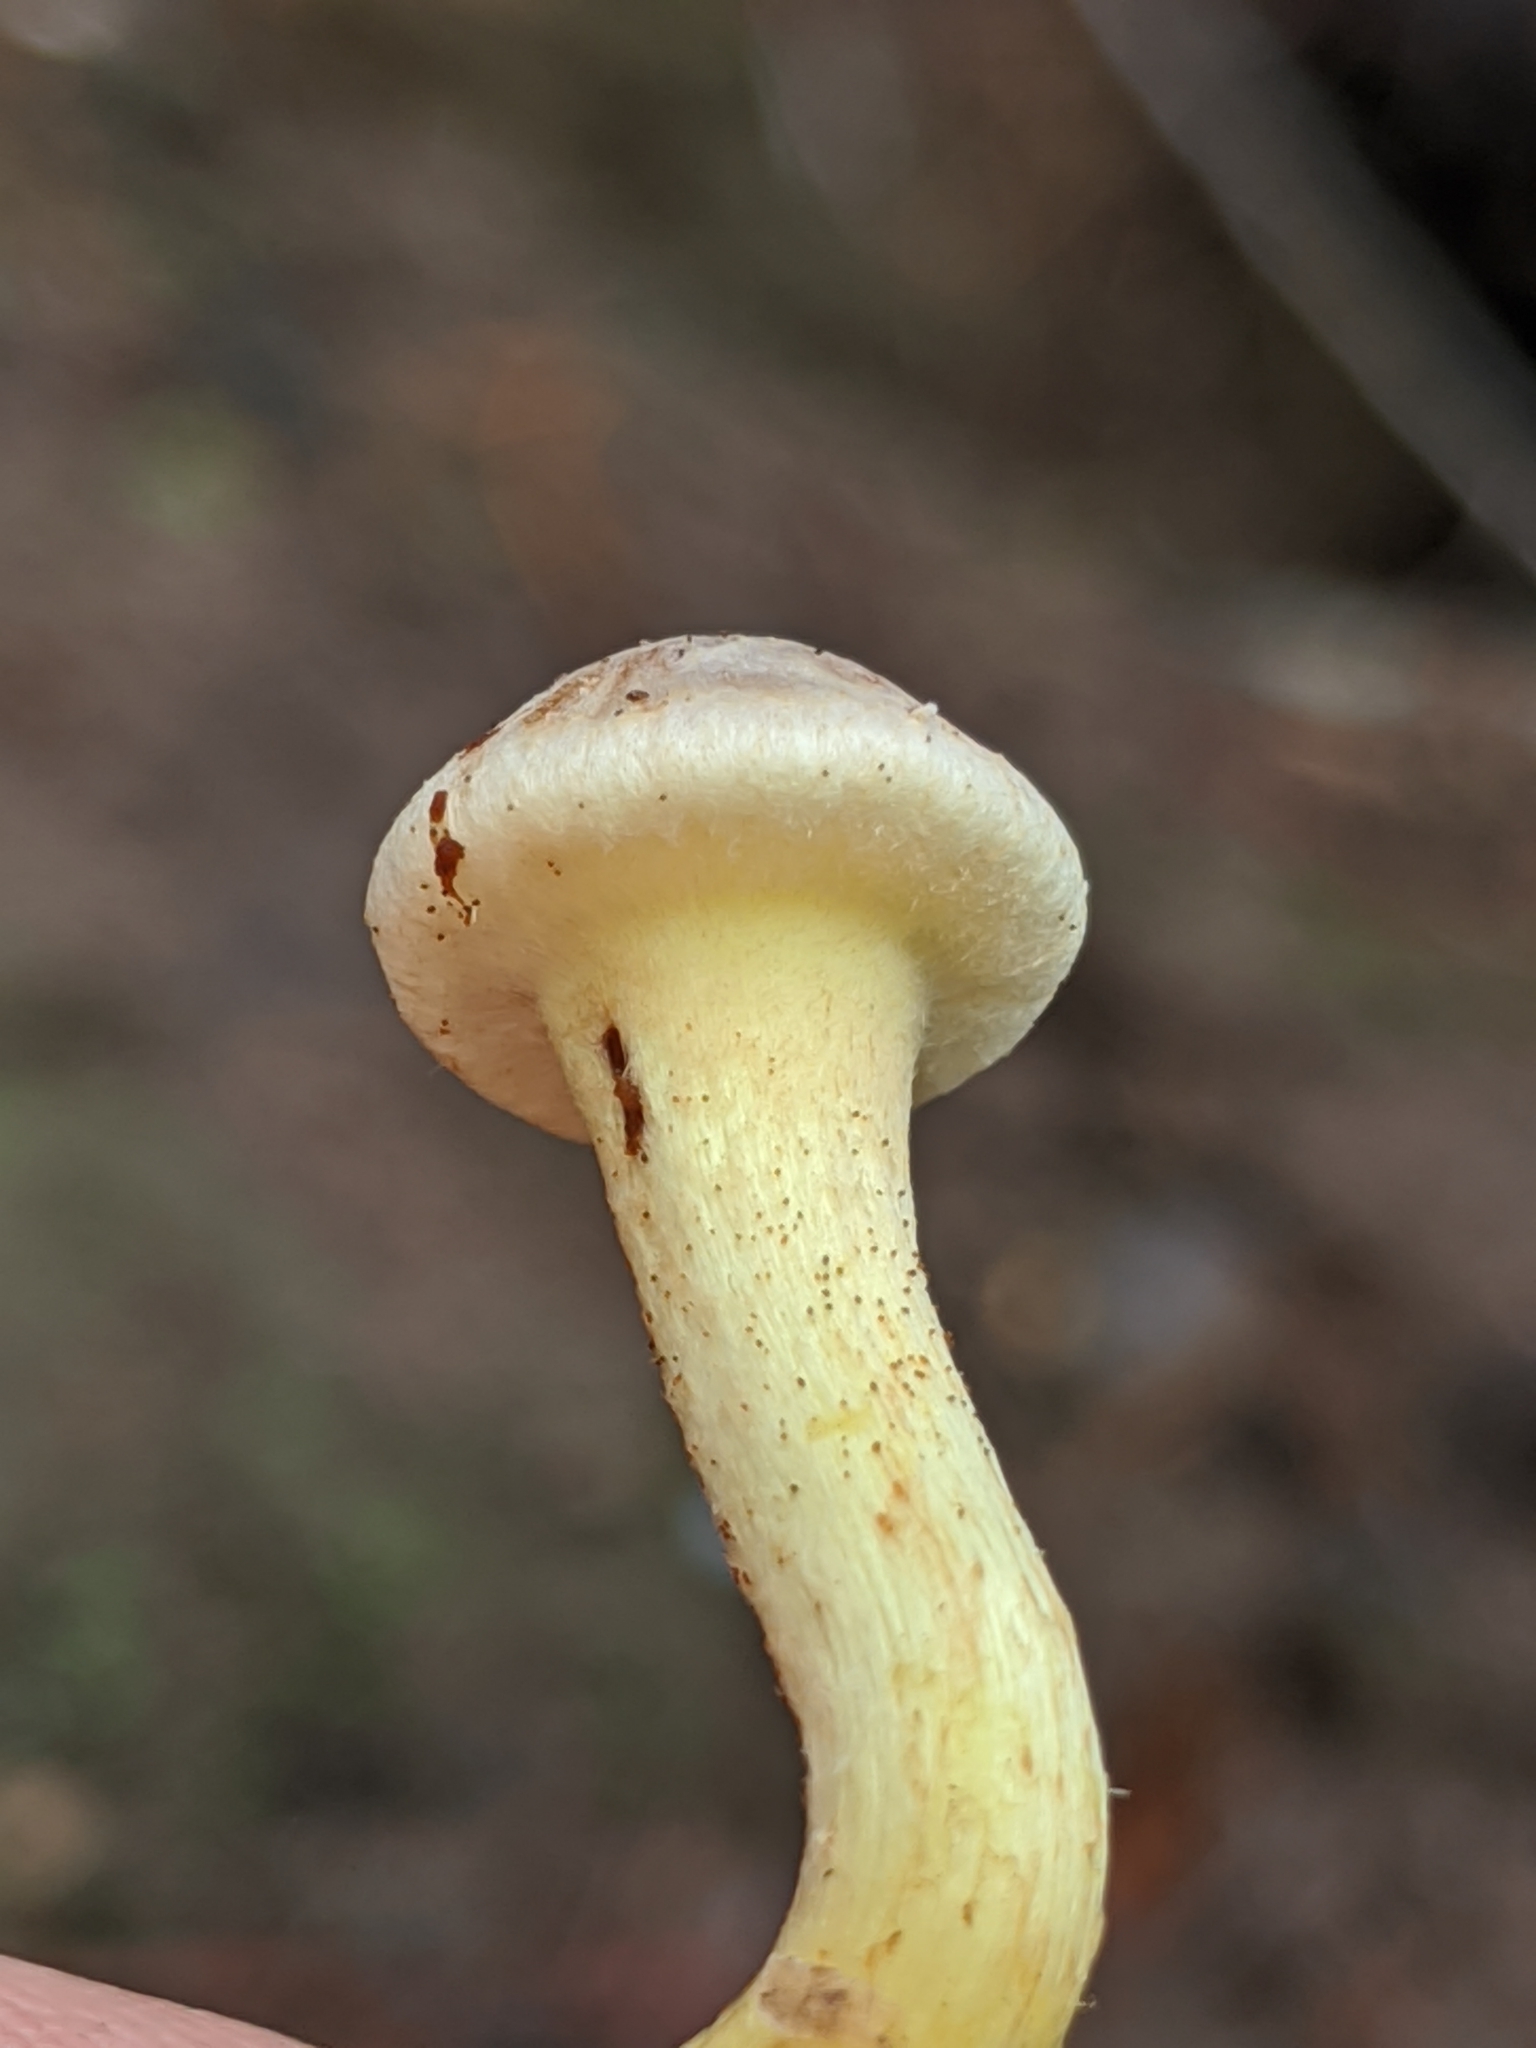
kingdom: Fungi
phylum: Basidiomycota
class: Agaricomycetes
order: Agaricales
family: Strophariaceae
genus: Hypholoma
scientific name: Hypholoma fasciculare
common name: Sulphur tuft
